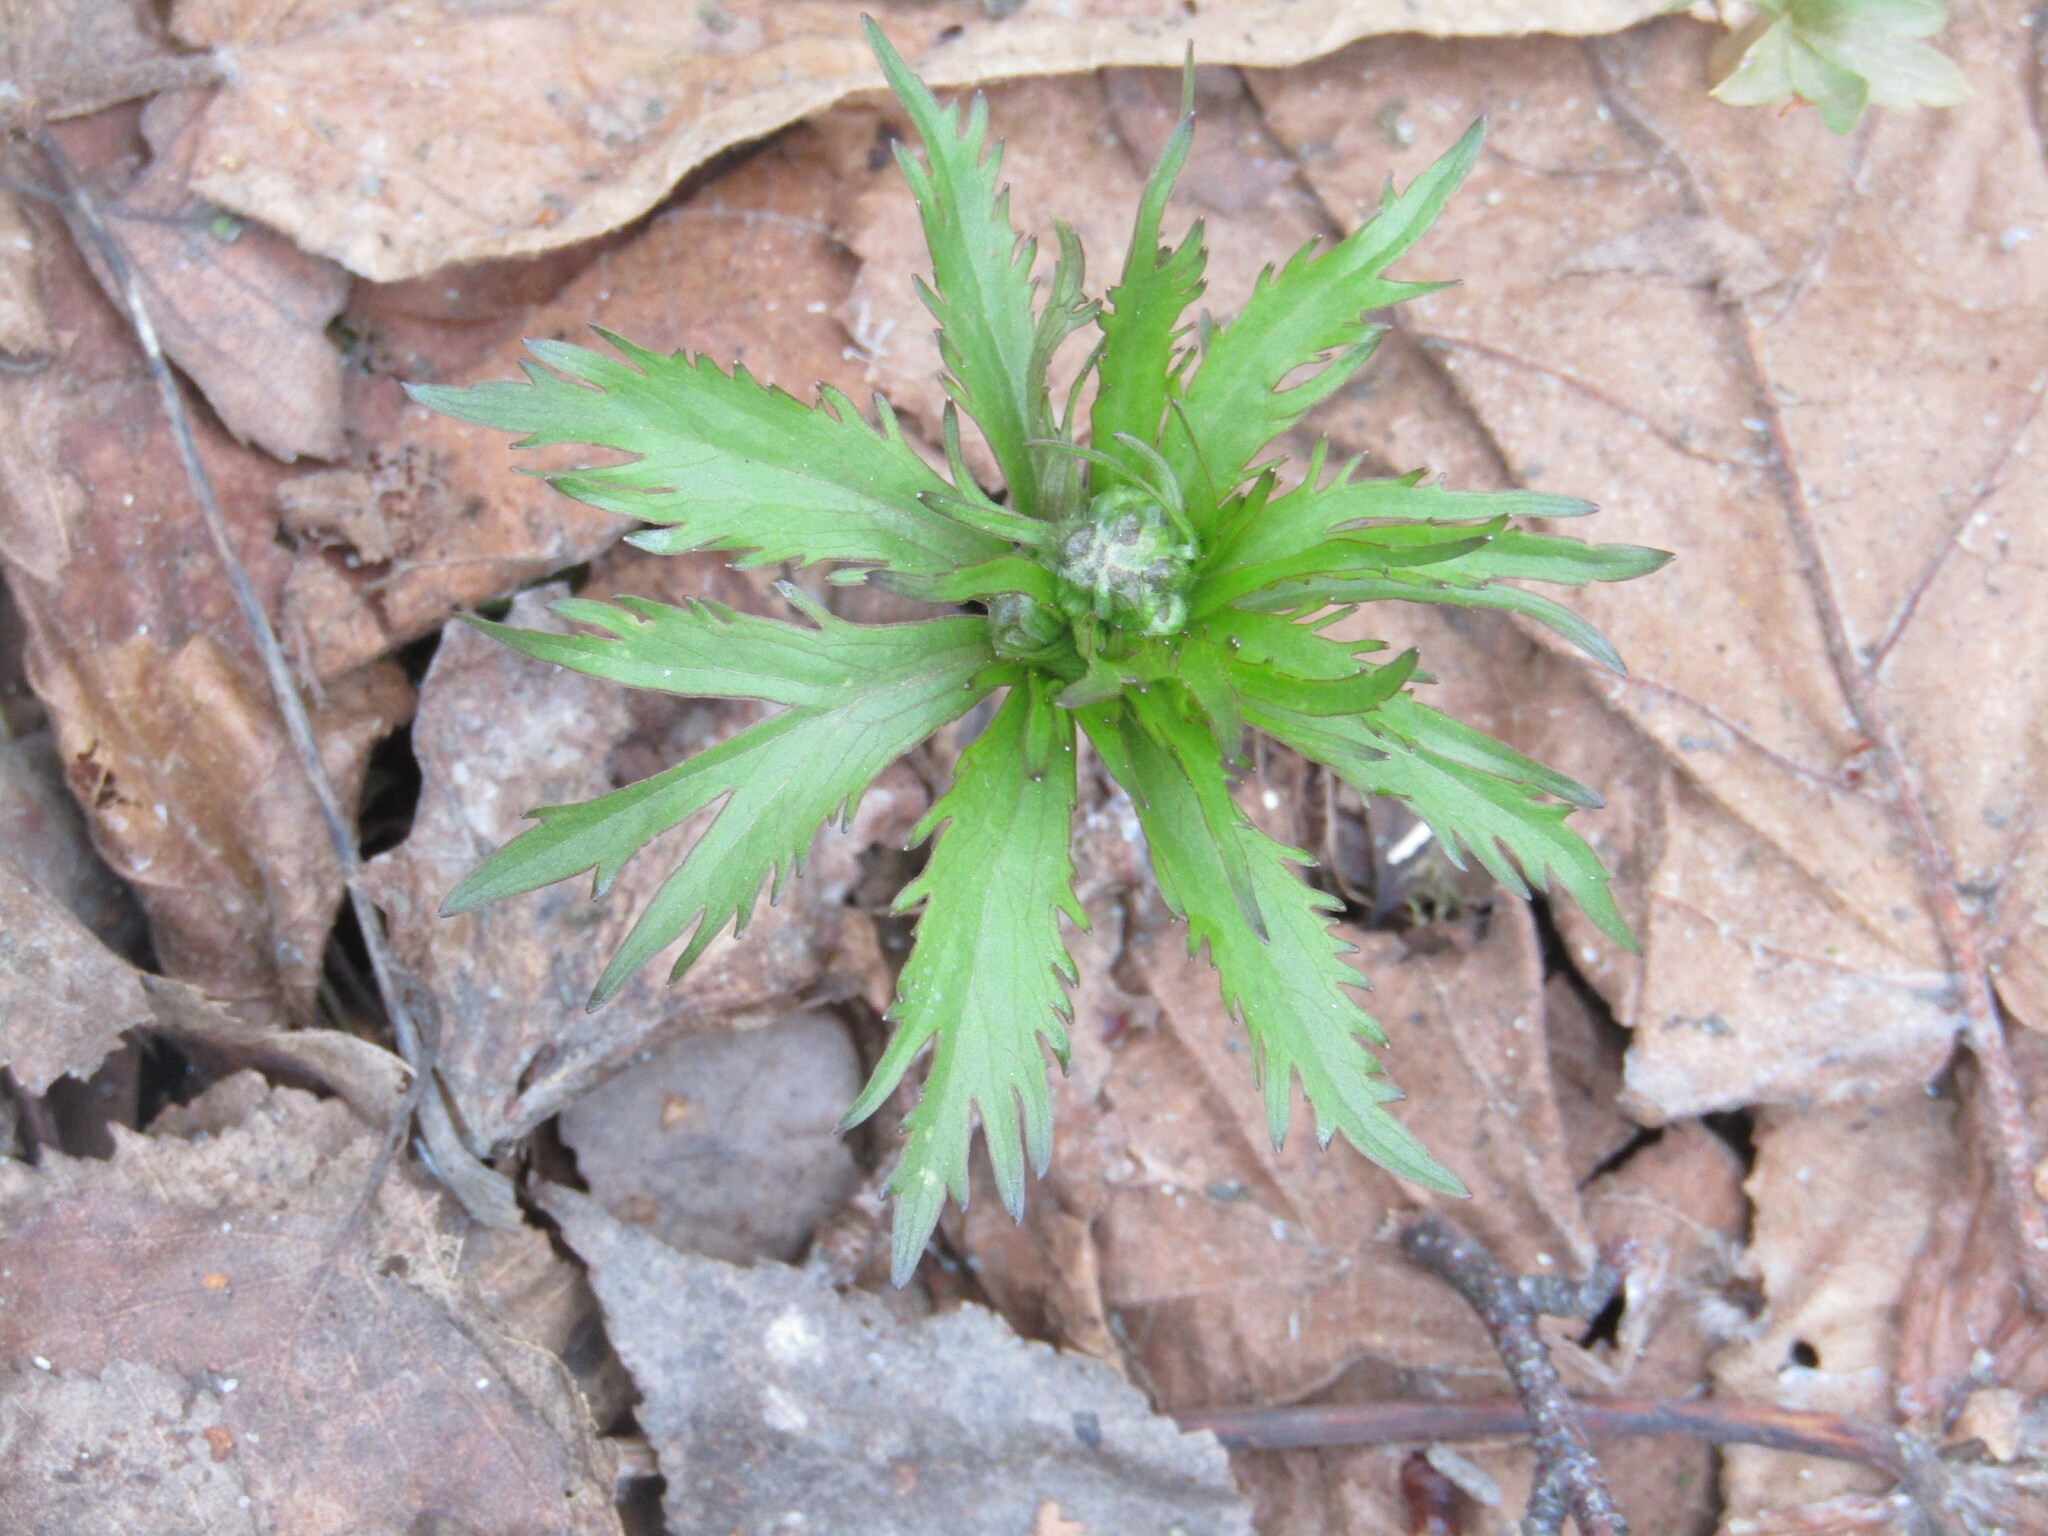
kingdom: Plantae
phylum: Tracheophyta
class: Magnoliopsida
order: Ranunculales
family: Ranunculaceae
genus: Ranunculus
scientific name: Ranunculus cassubicus
